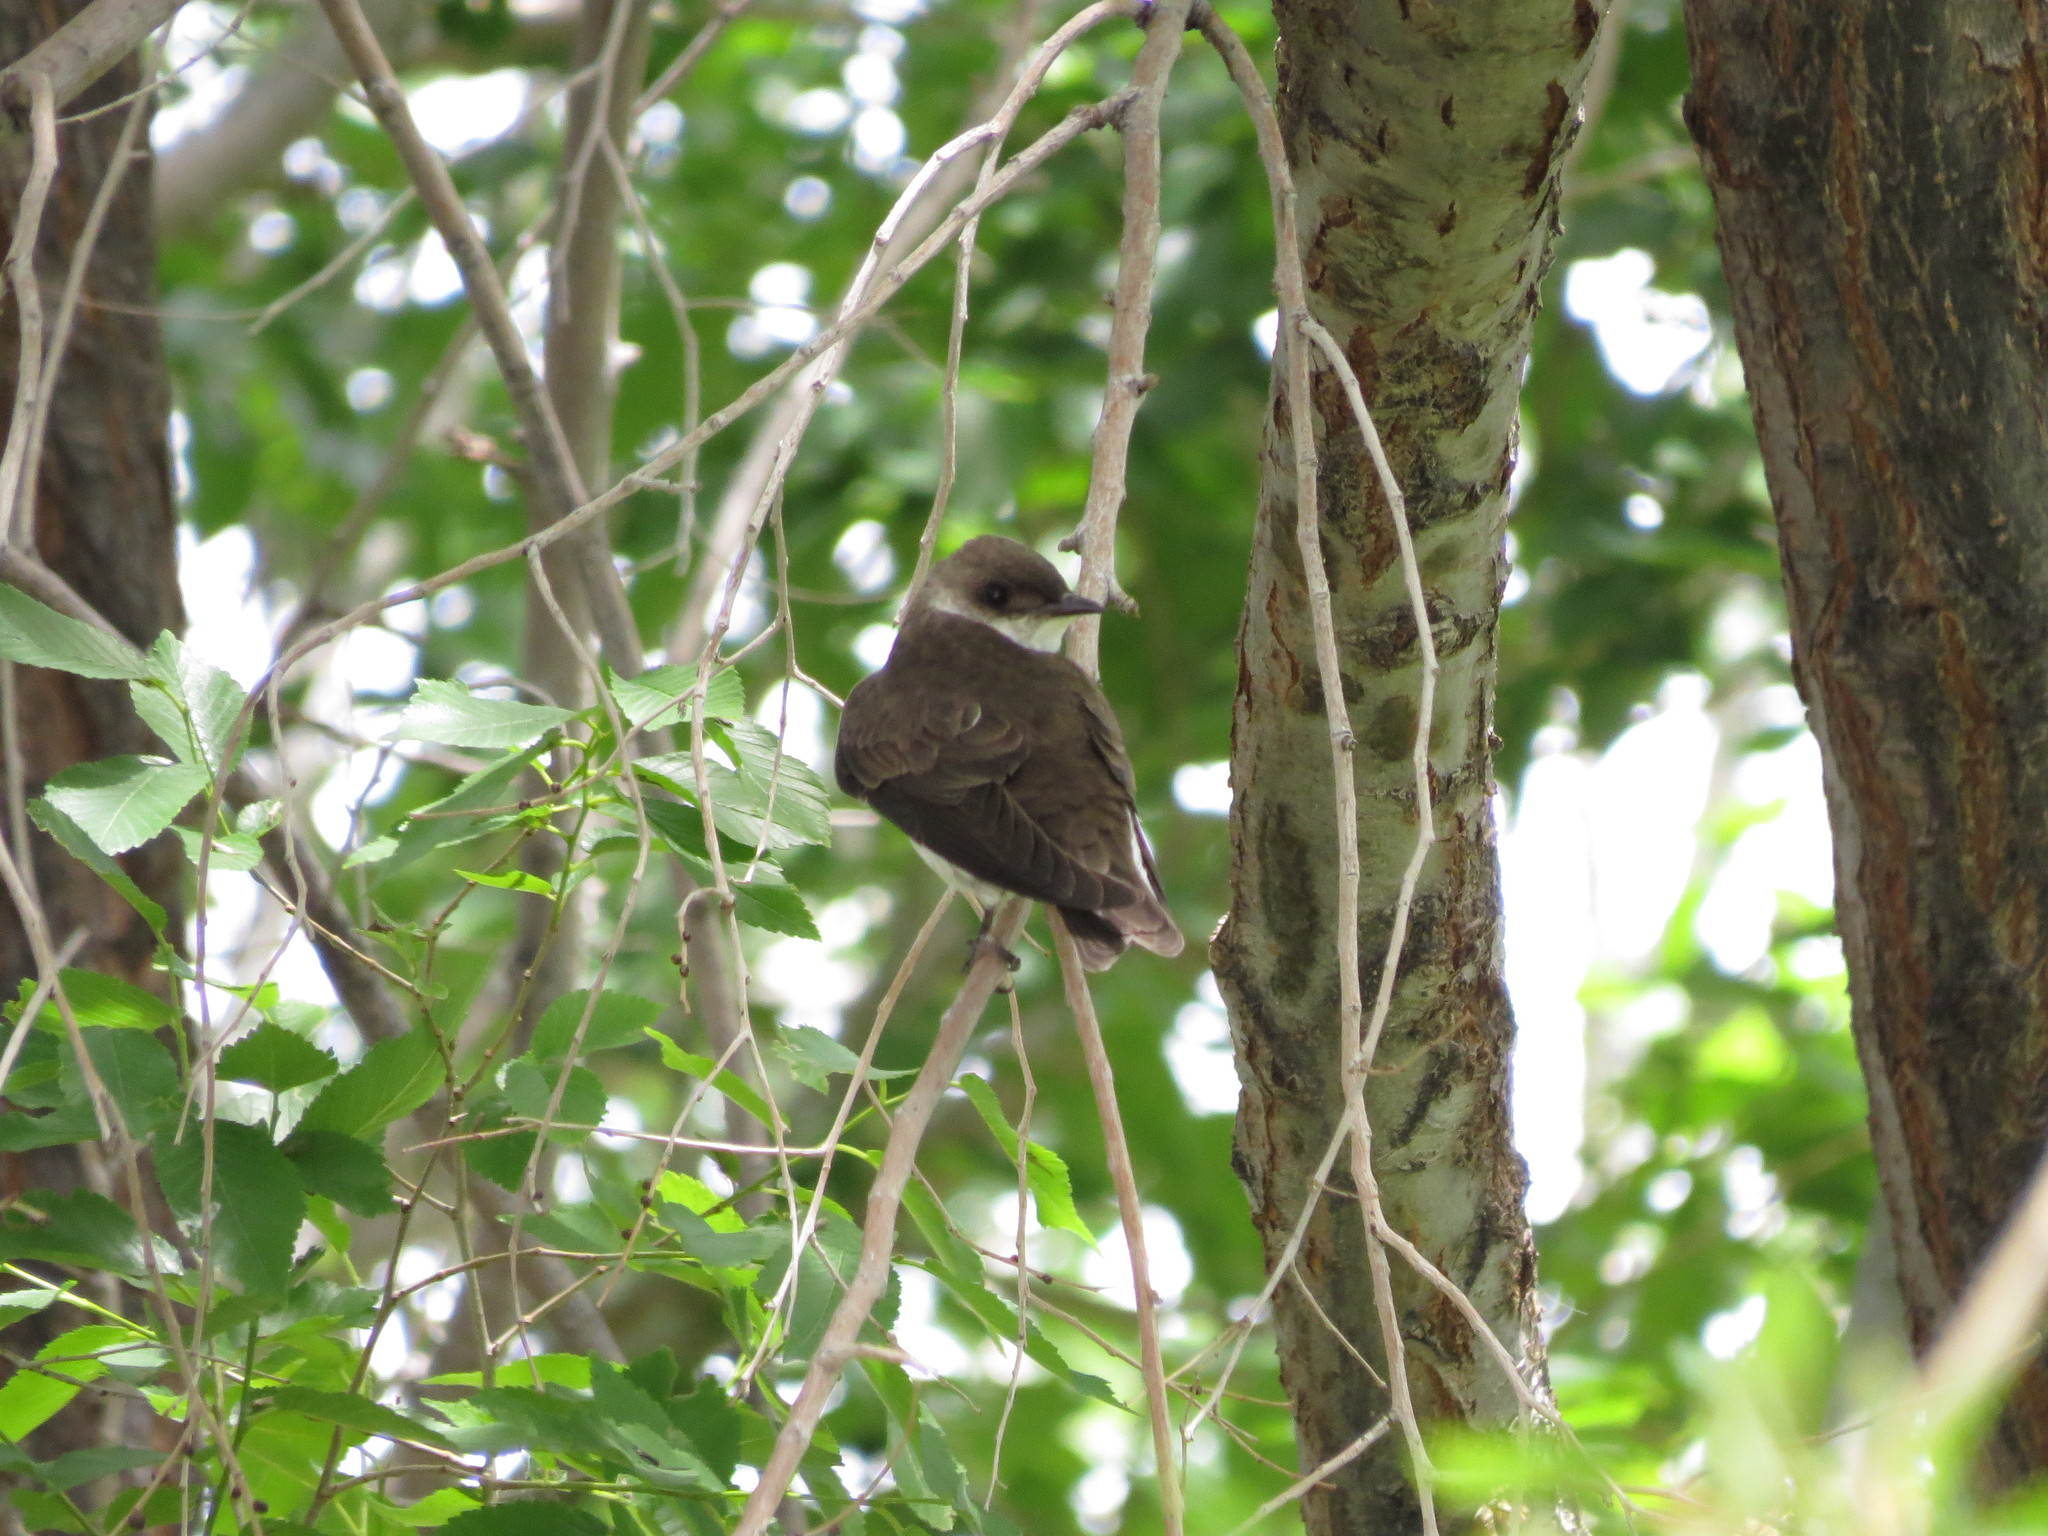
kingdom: Animalia
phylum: Chordata
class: Aves
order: Passeriformes
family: Hirundinidae
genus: Progne
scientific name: Progne tapera
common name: Brown-chested martin
